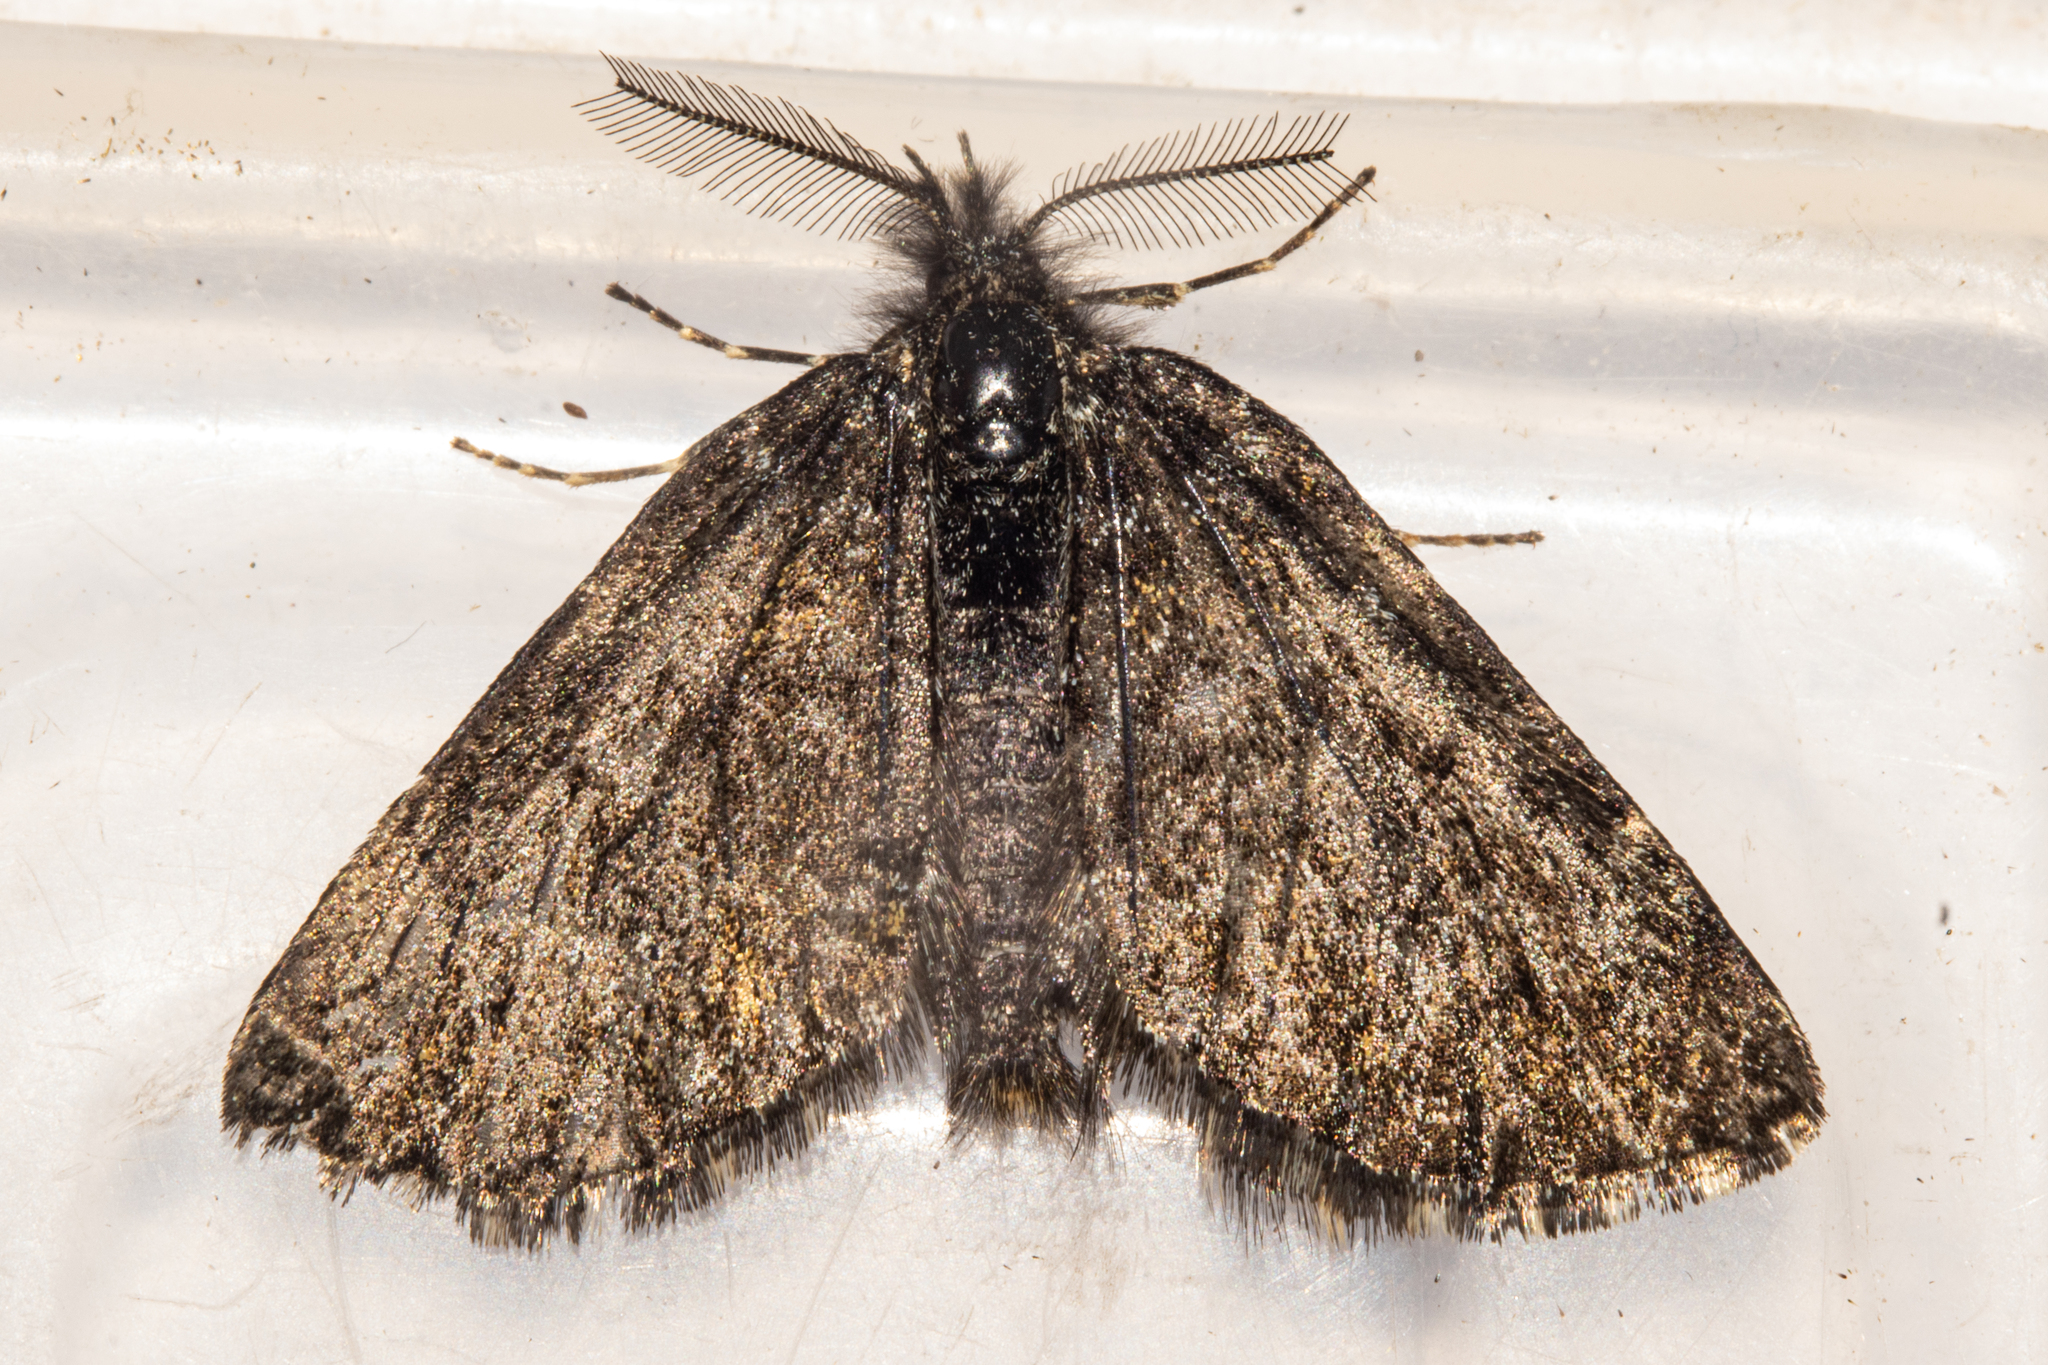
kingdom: Animalia
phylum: Arthropoda
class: Insecta
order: Lepidoptera
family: Geometridae
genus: Aponotoreas
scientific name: Aponotoreas orphnaea
